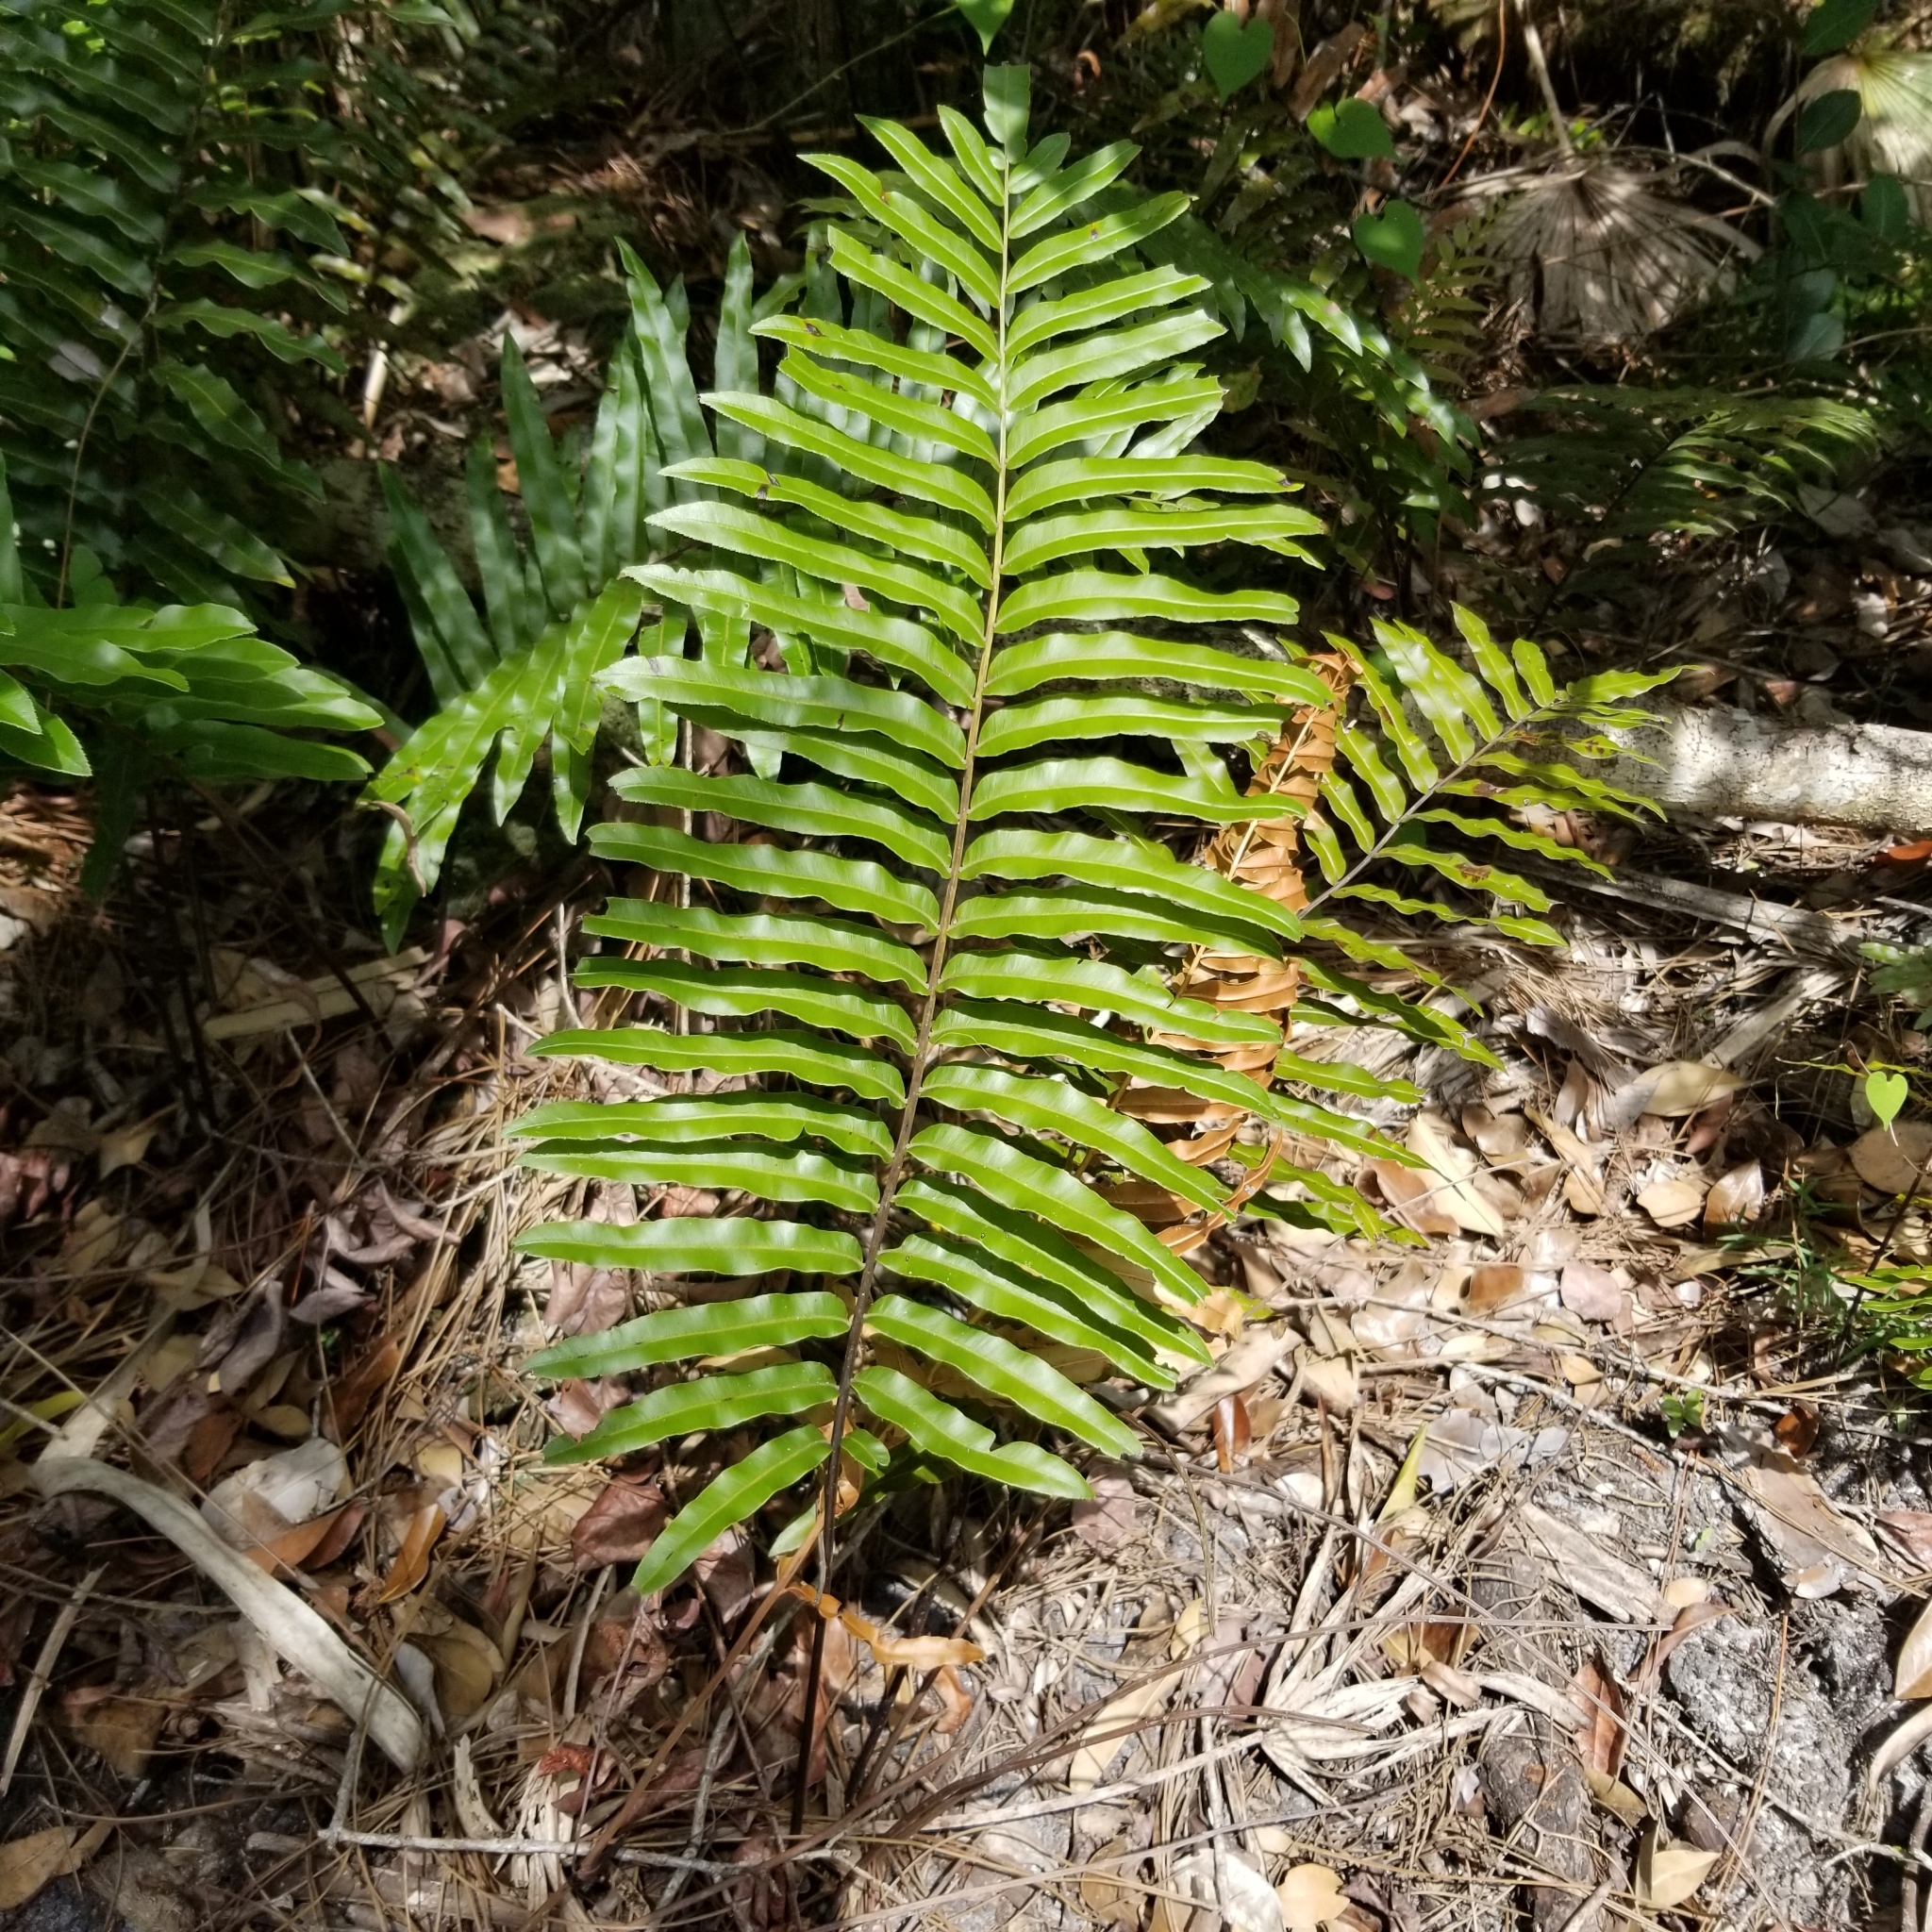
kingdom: Plantae
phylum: Tracheophyta
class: Polypodiopsida
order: Polypodiales
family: Blechnaceae
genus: Telmatoblechnum
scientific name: Telmatoblechnum serrulatum
